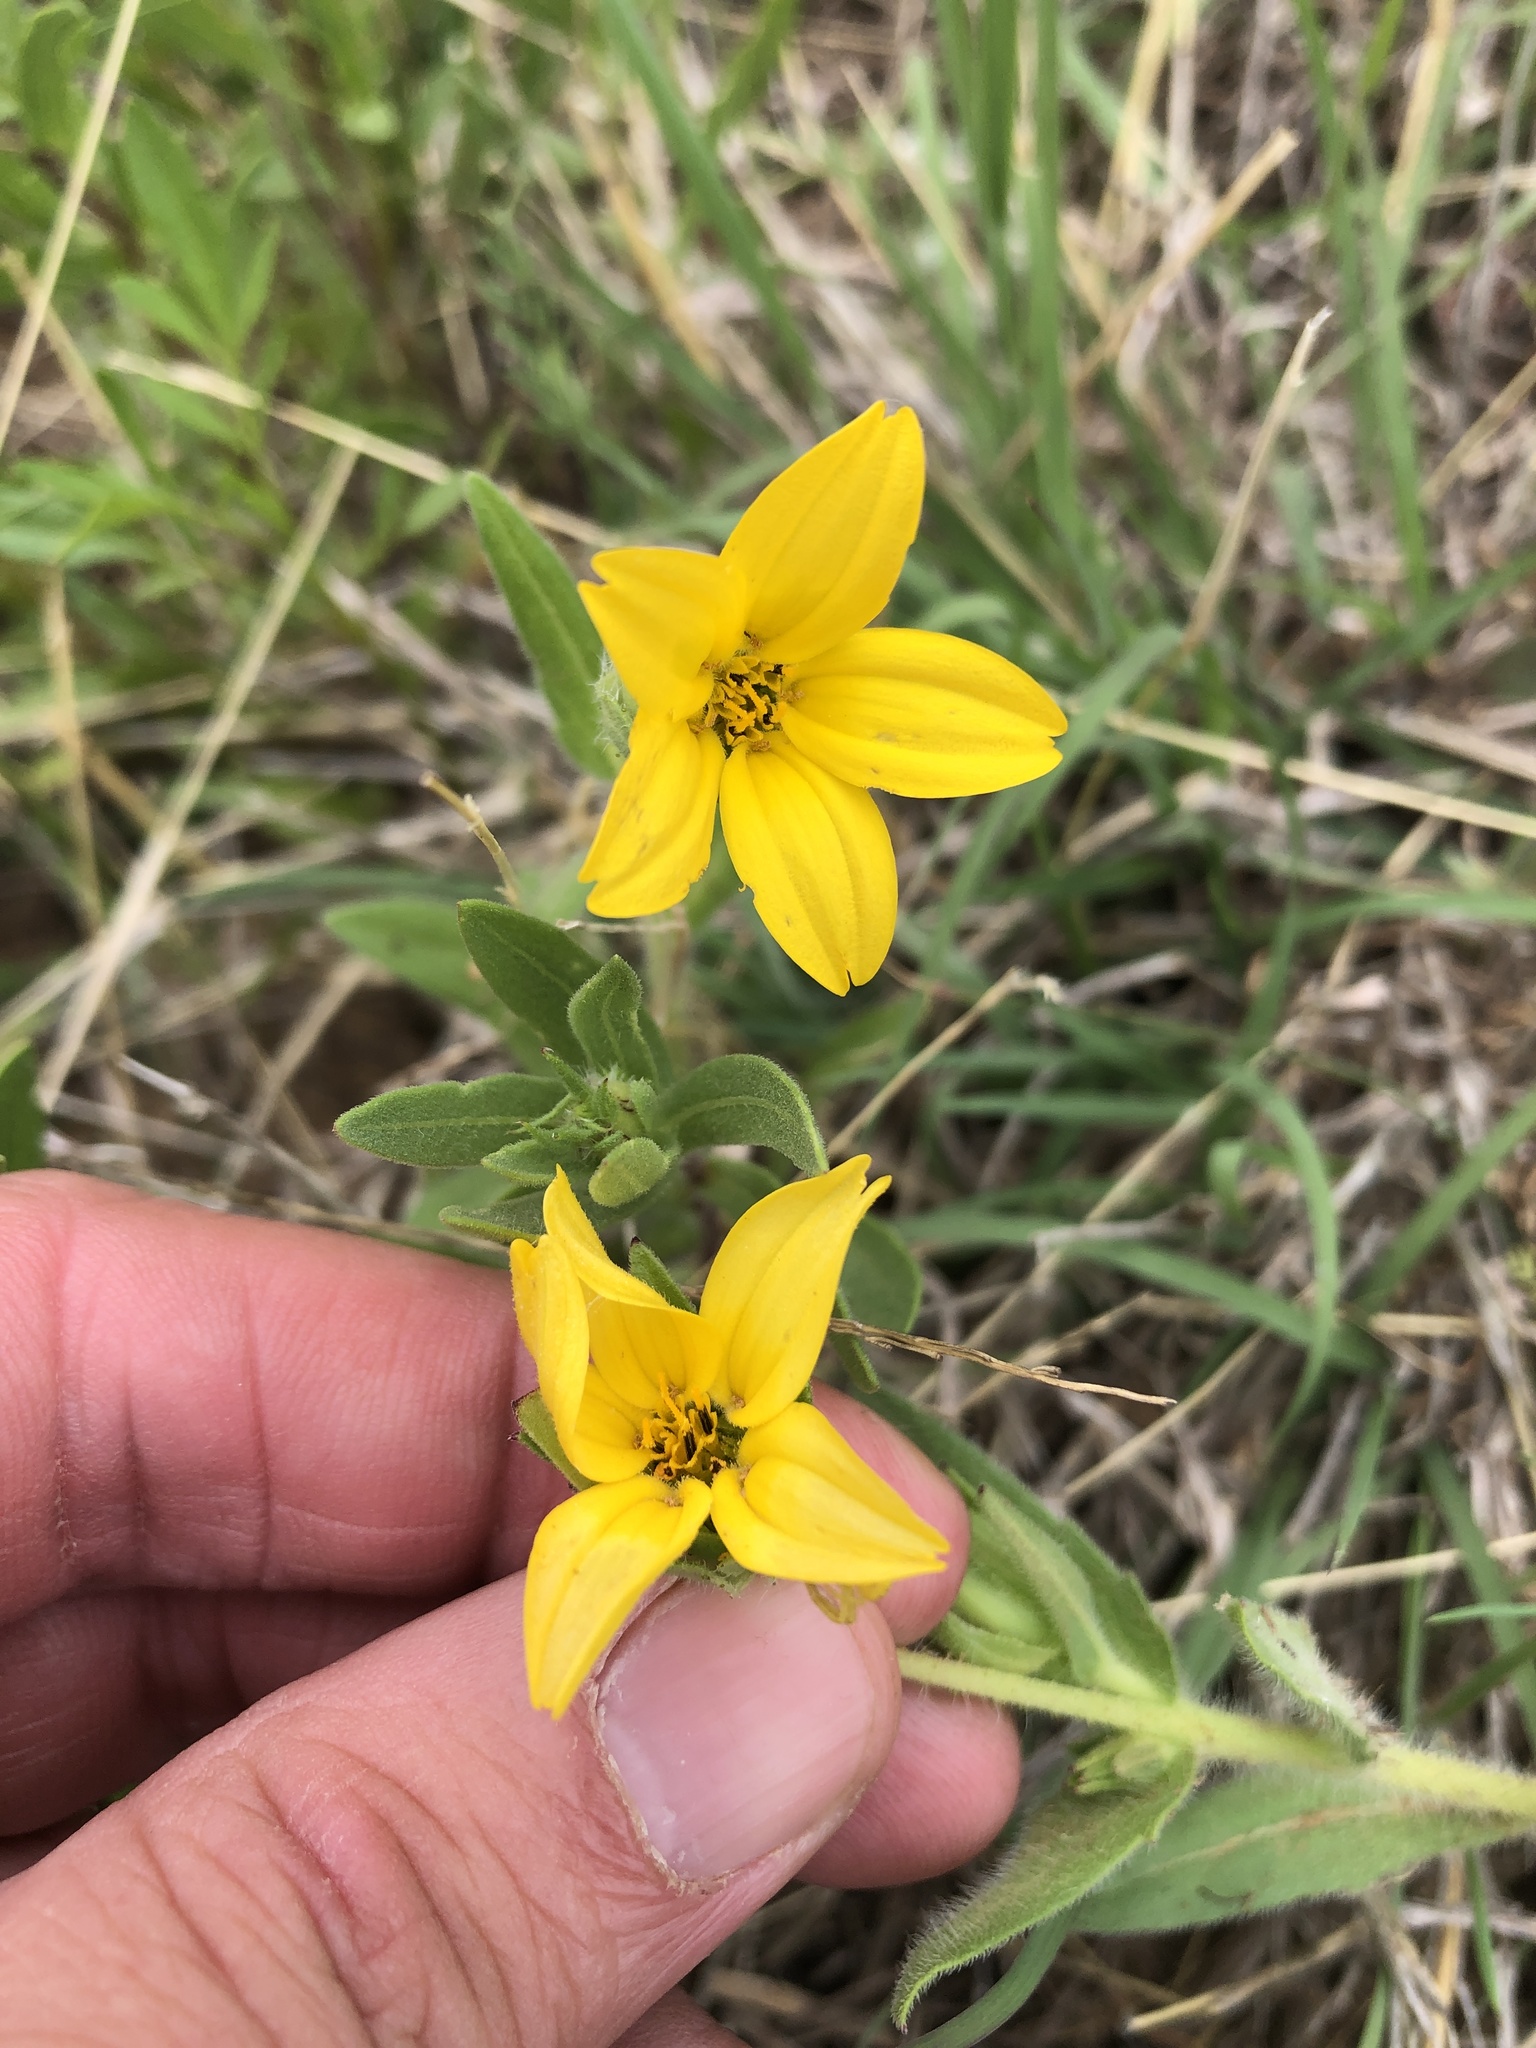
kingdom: Plantae
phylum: Tracheophyta
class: Magnoliopsida
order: Asterales
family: Asteraceae
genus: Lindheimera
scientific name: Lindheimera texana
